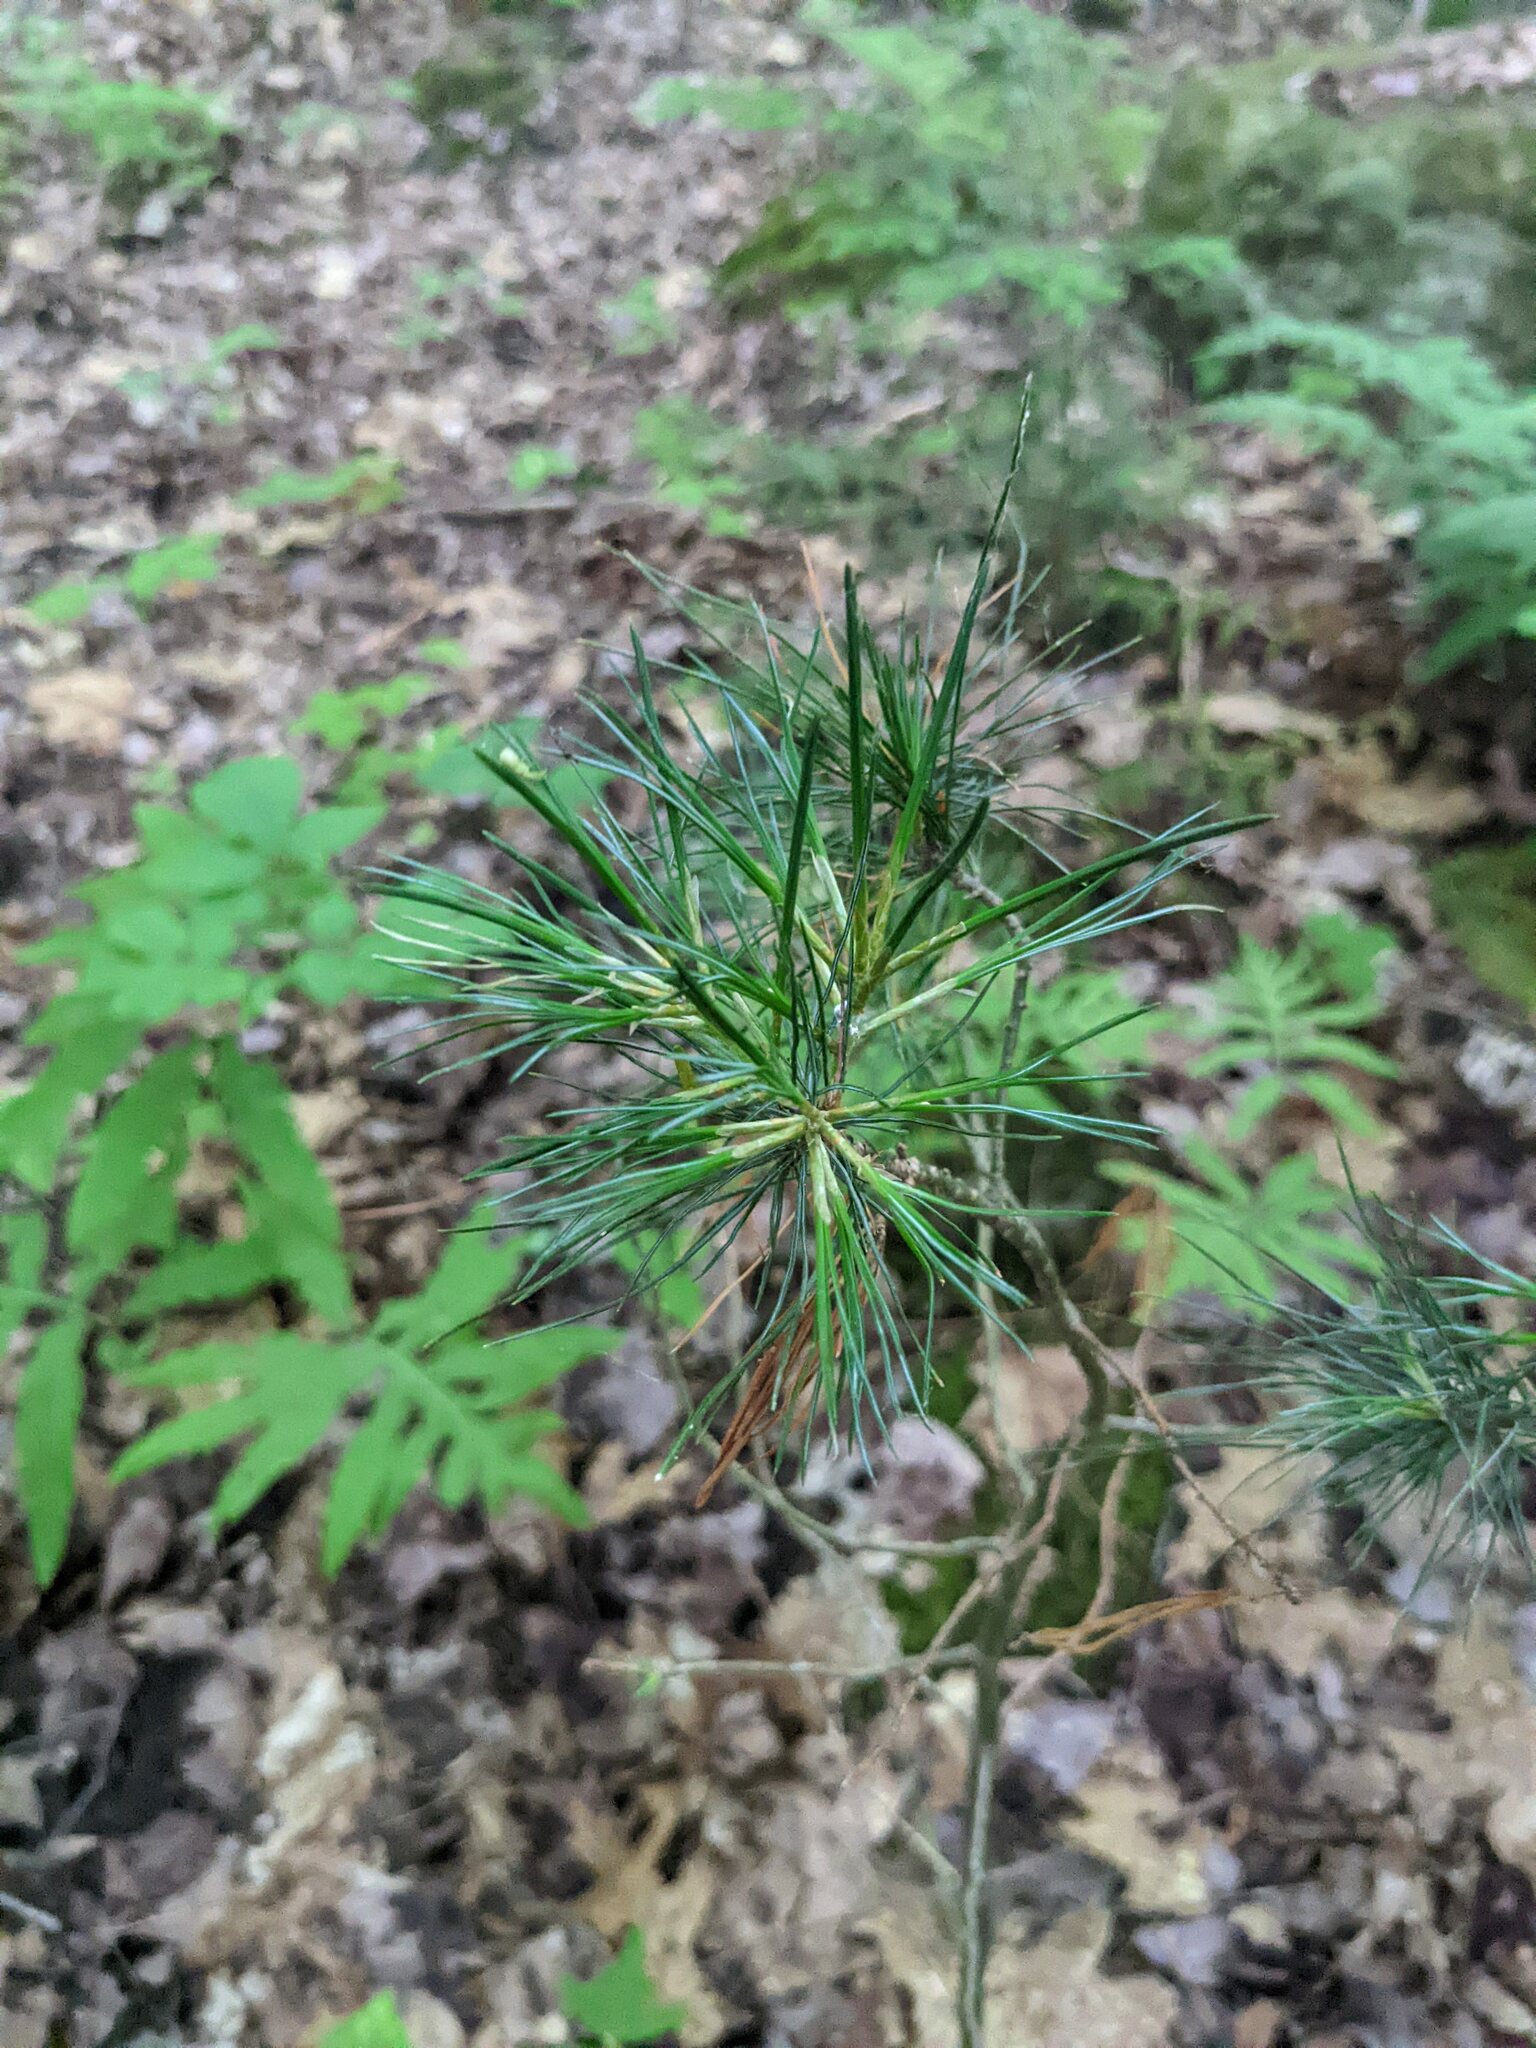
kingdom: Plantae
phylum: Tracheophyta
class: Pinopsida
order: Pinales
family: Pinaceae
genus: Pinus
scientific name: Pinus strobus
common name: Weymouth pine
